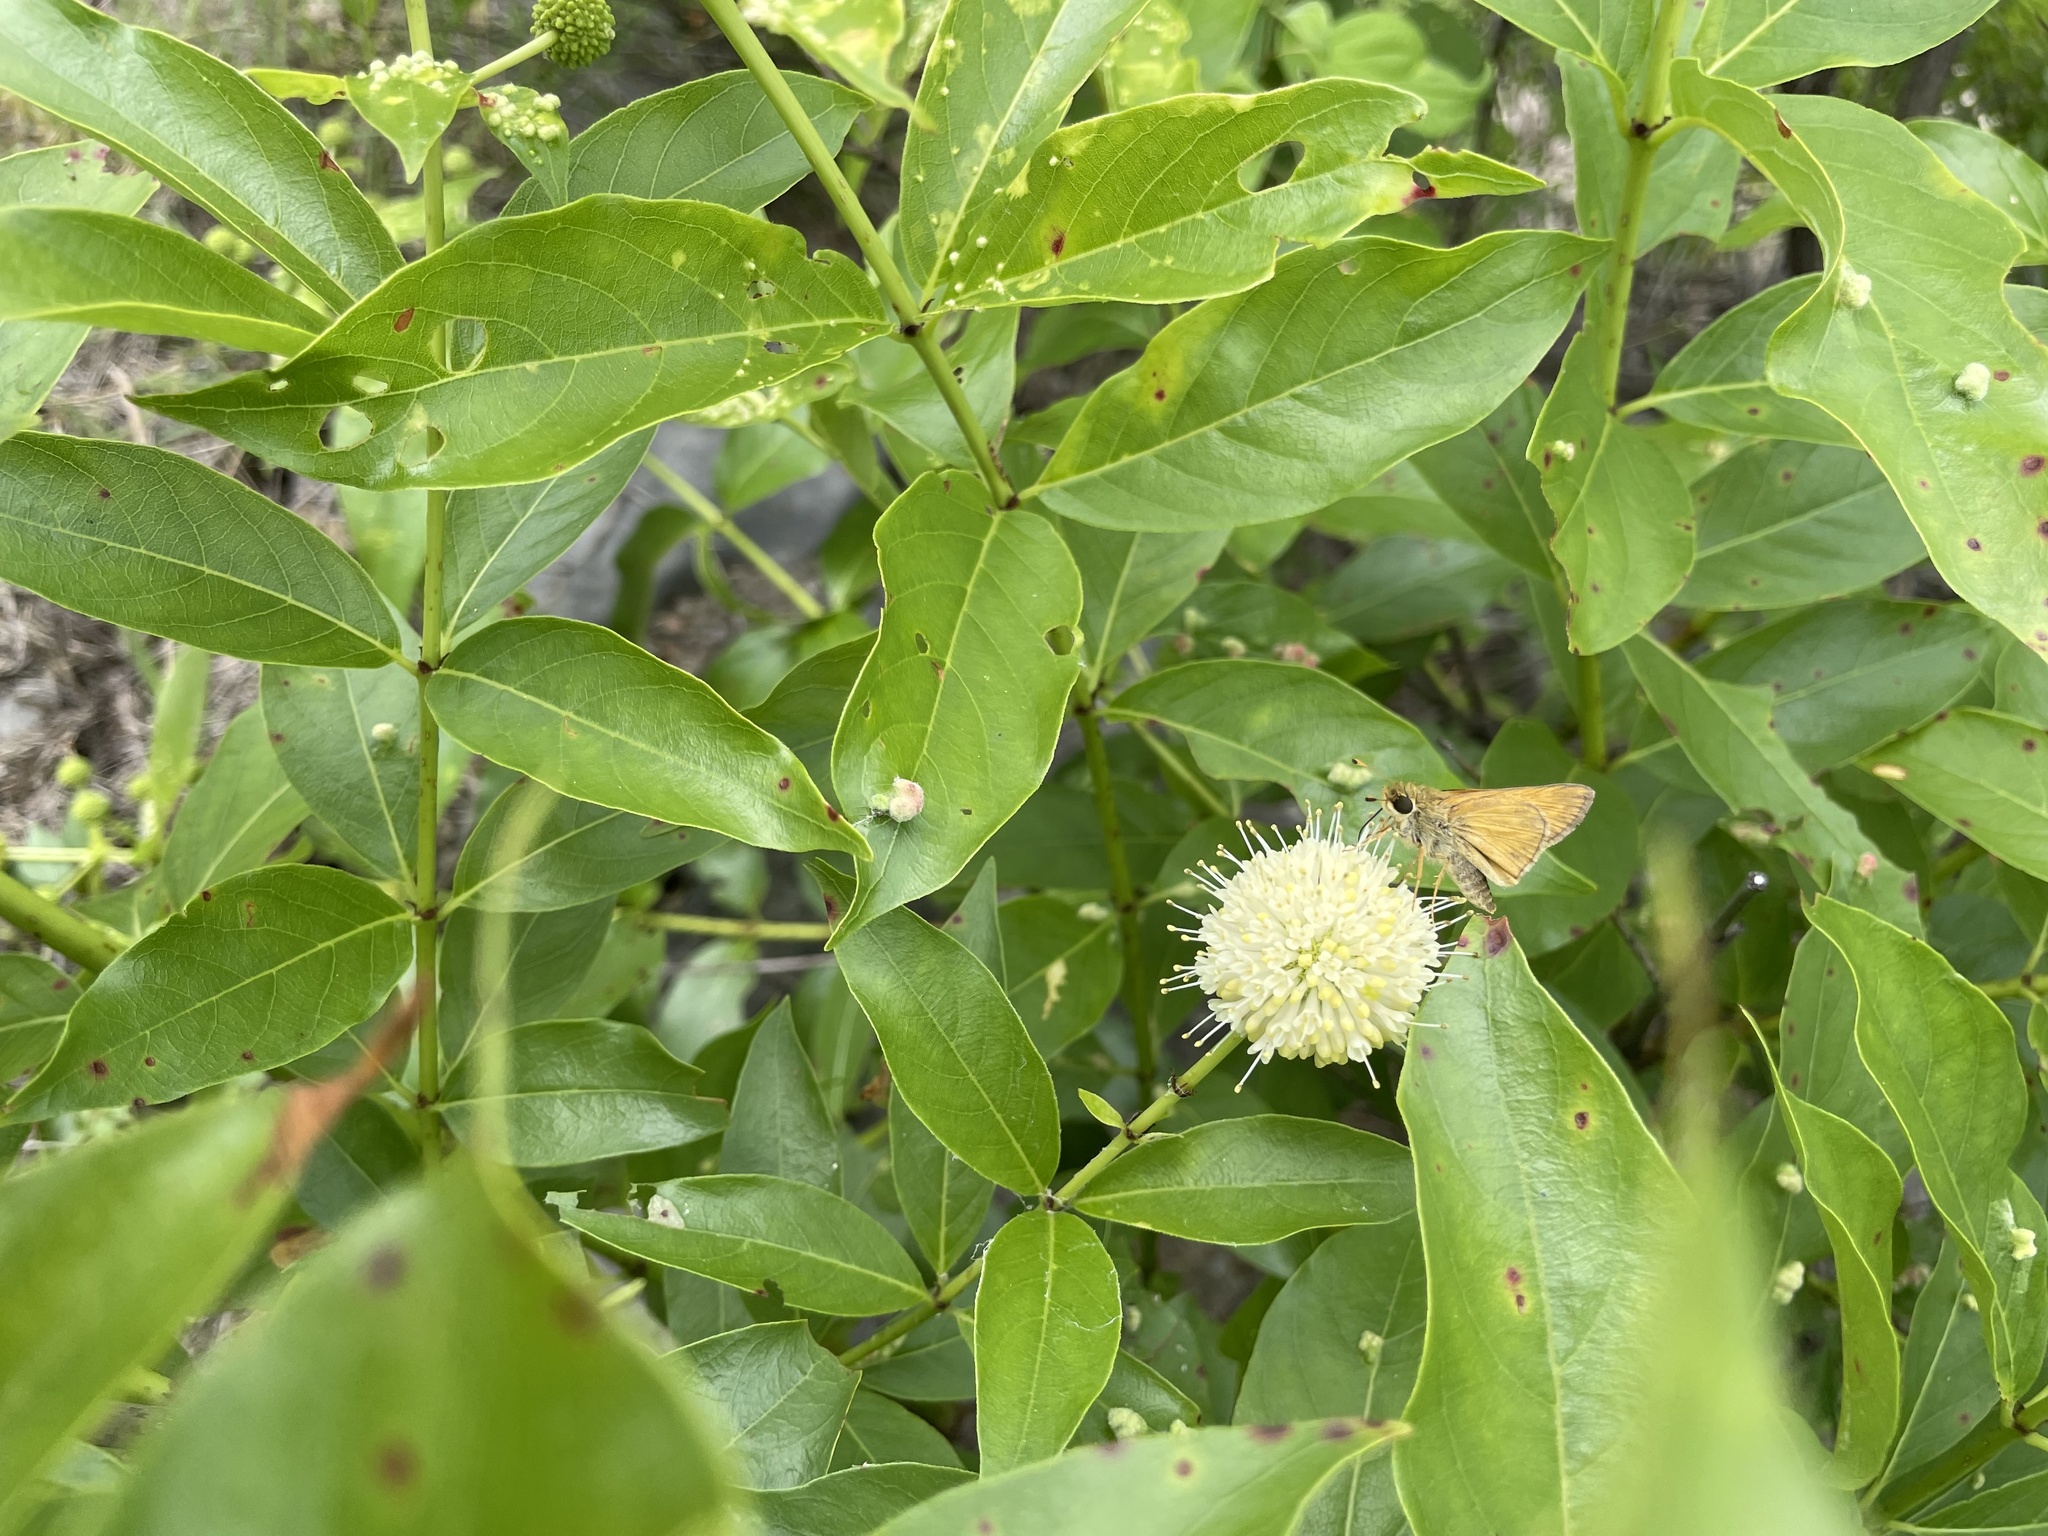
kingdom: Animalia
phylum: Arthropoda
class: Insecta
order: Lepidoptera
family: Hesperiidae
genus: Atalopedes
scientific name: Atalopedes
